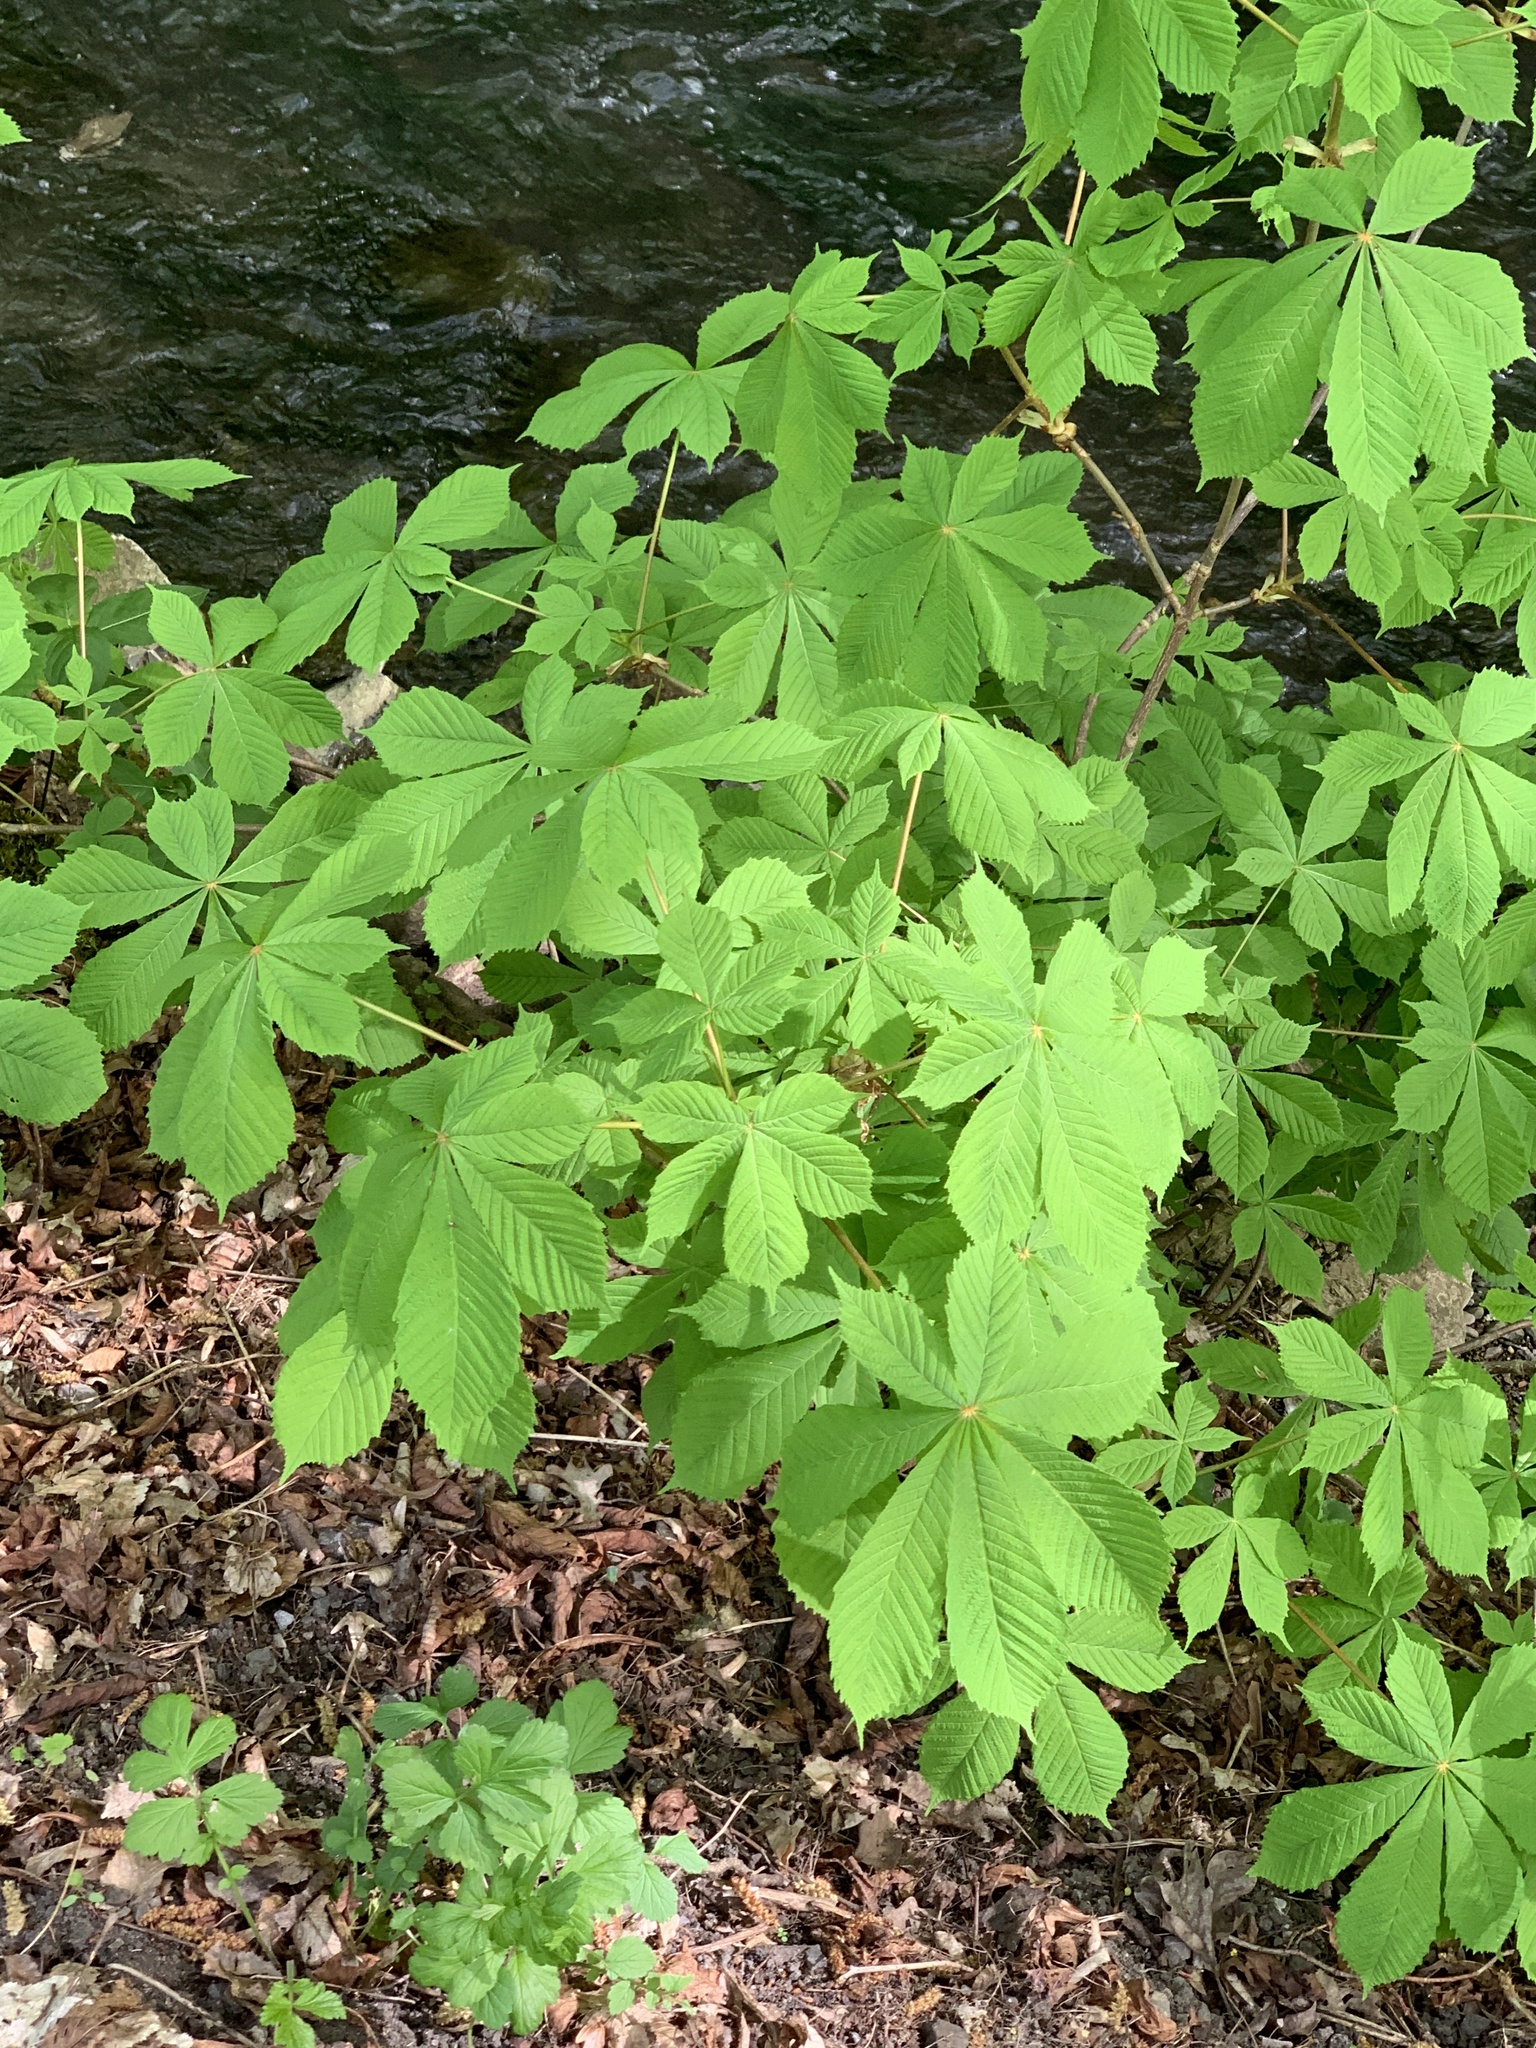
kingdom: Plantae
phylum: Tracheophyta
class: Magnoliopsida
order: Sapindales
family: Sapindaceae
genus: Aesculus
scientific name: Aesculus hippocastanum
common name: Horse-chestnut
